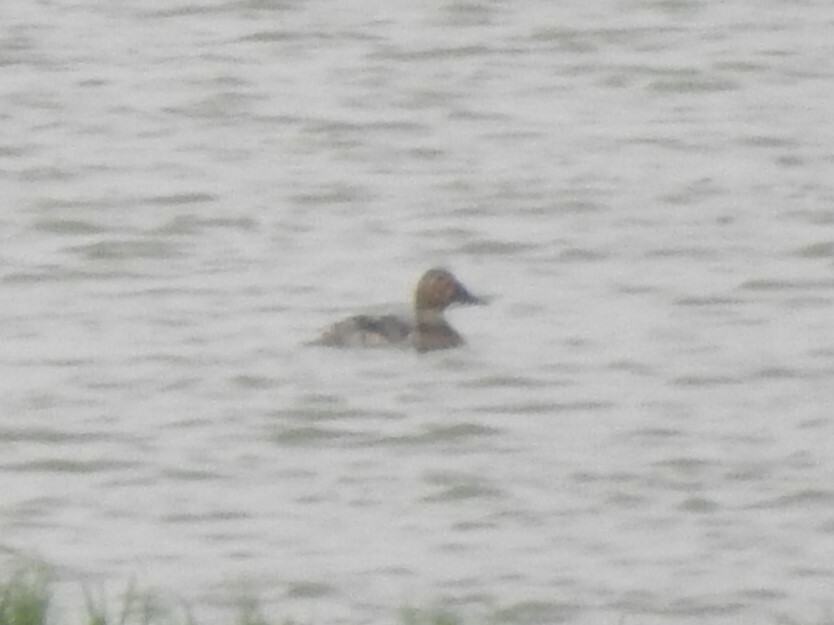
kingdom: Animalia
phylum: Chordata
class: Aves
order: Anseriformes
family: Anatidae
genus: Aythya
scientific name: Aythya valisineria
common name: Canvasback
